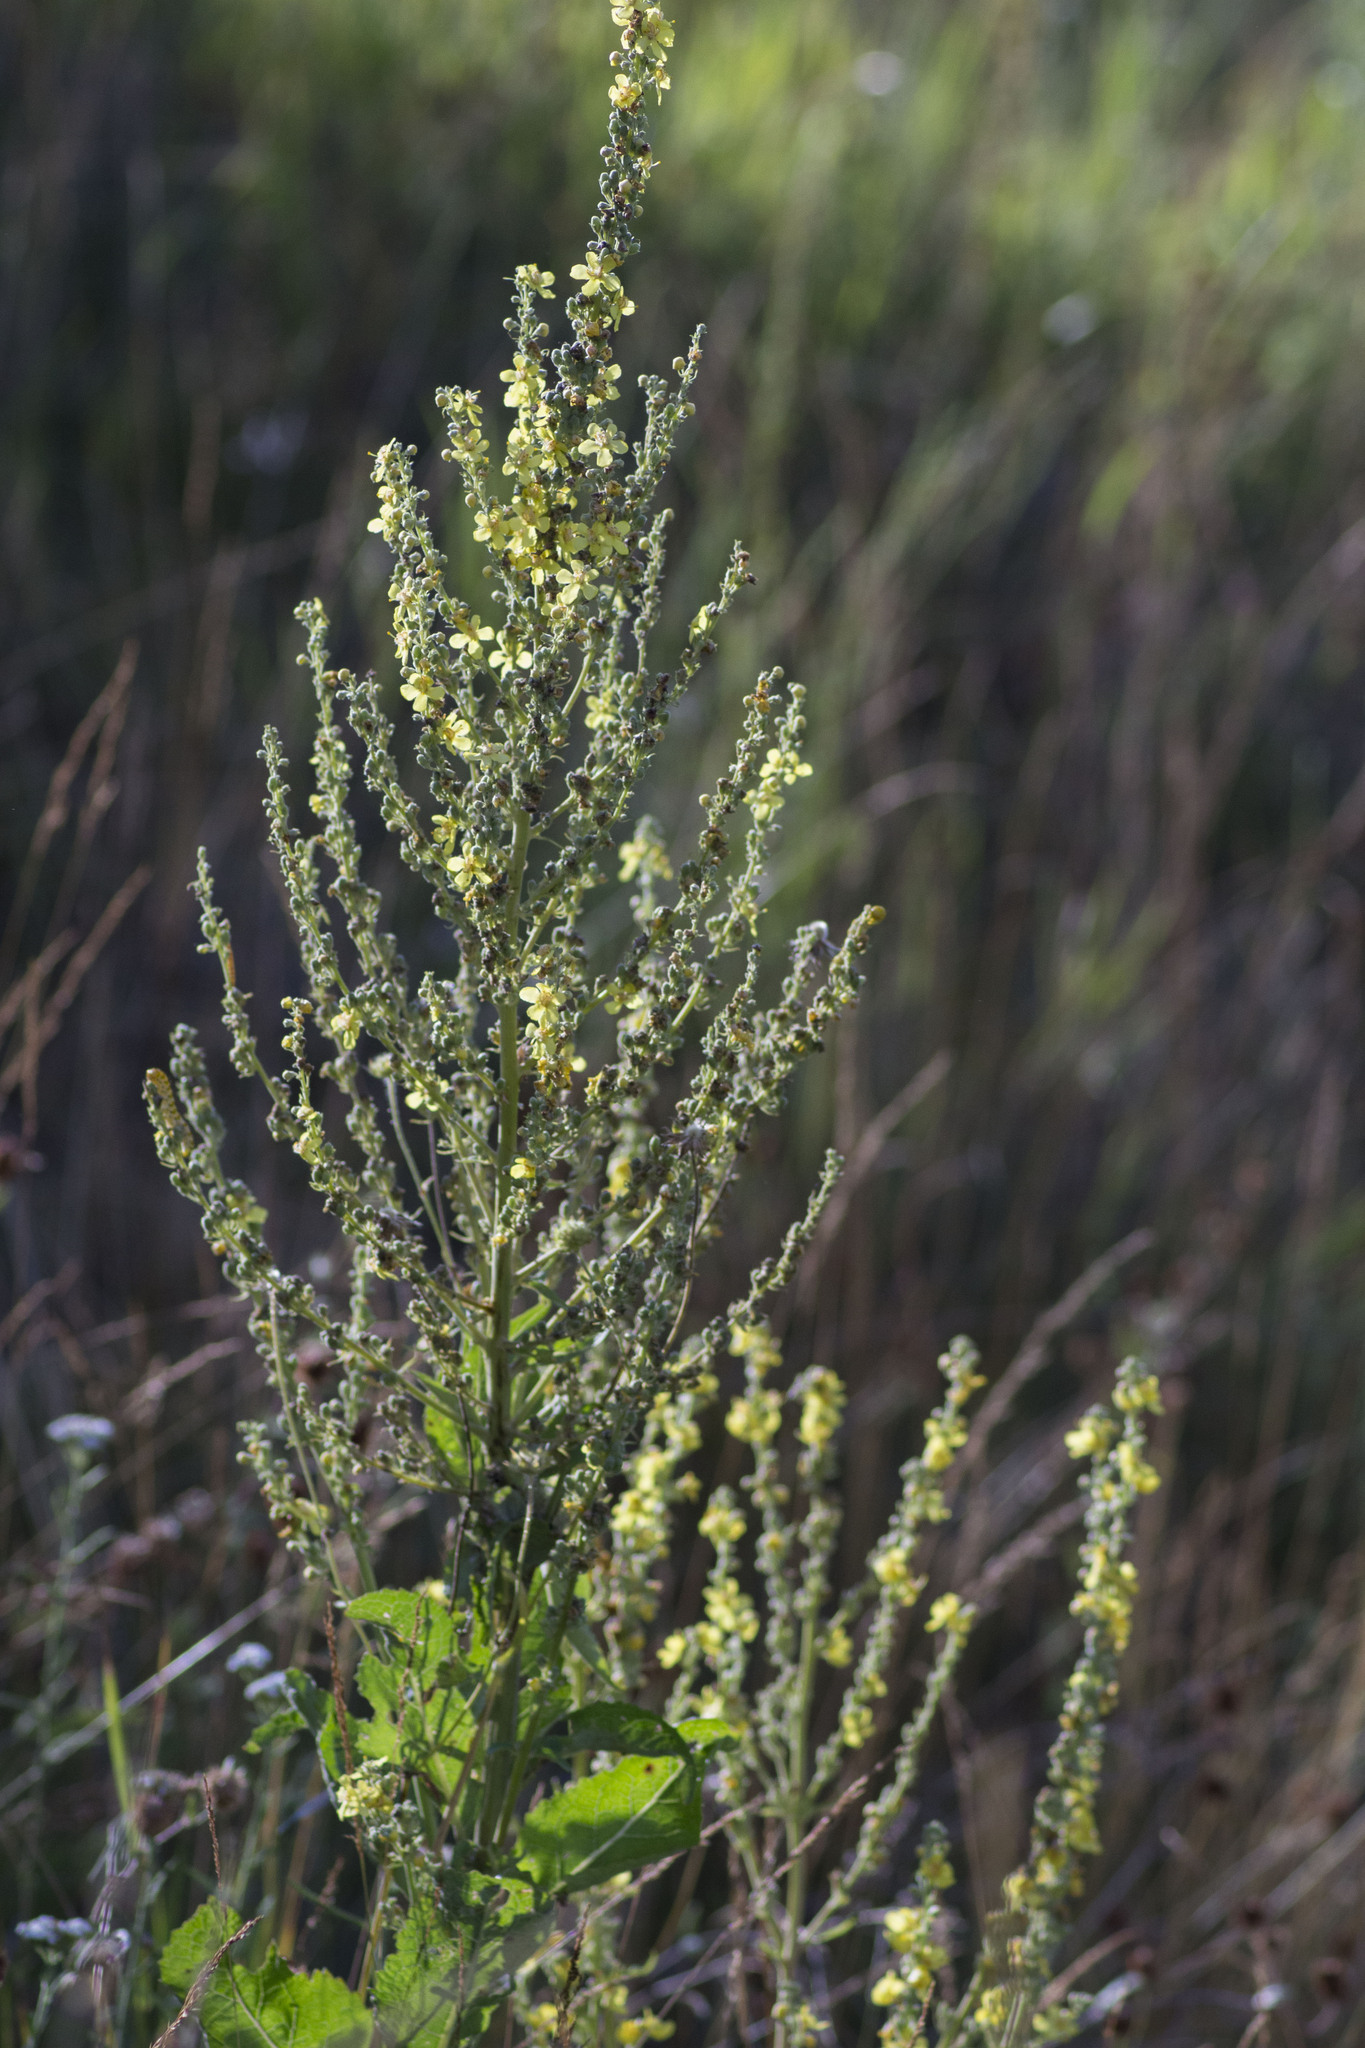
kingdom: Plantae
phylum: Tracheophyta
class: Magnoliopsida
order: Lamiales
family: Scrophulariaceae
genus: Verbascum
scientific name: Verbascum lychnitis
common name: White mullein
